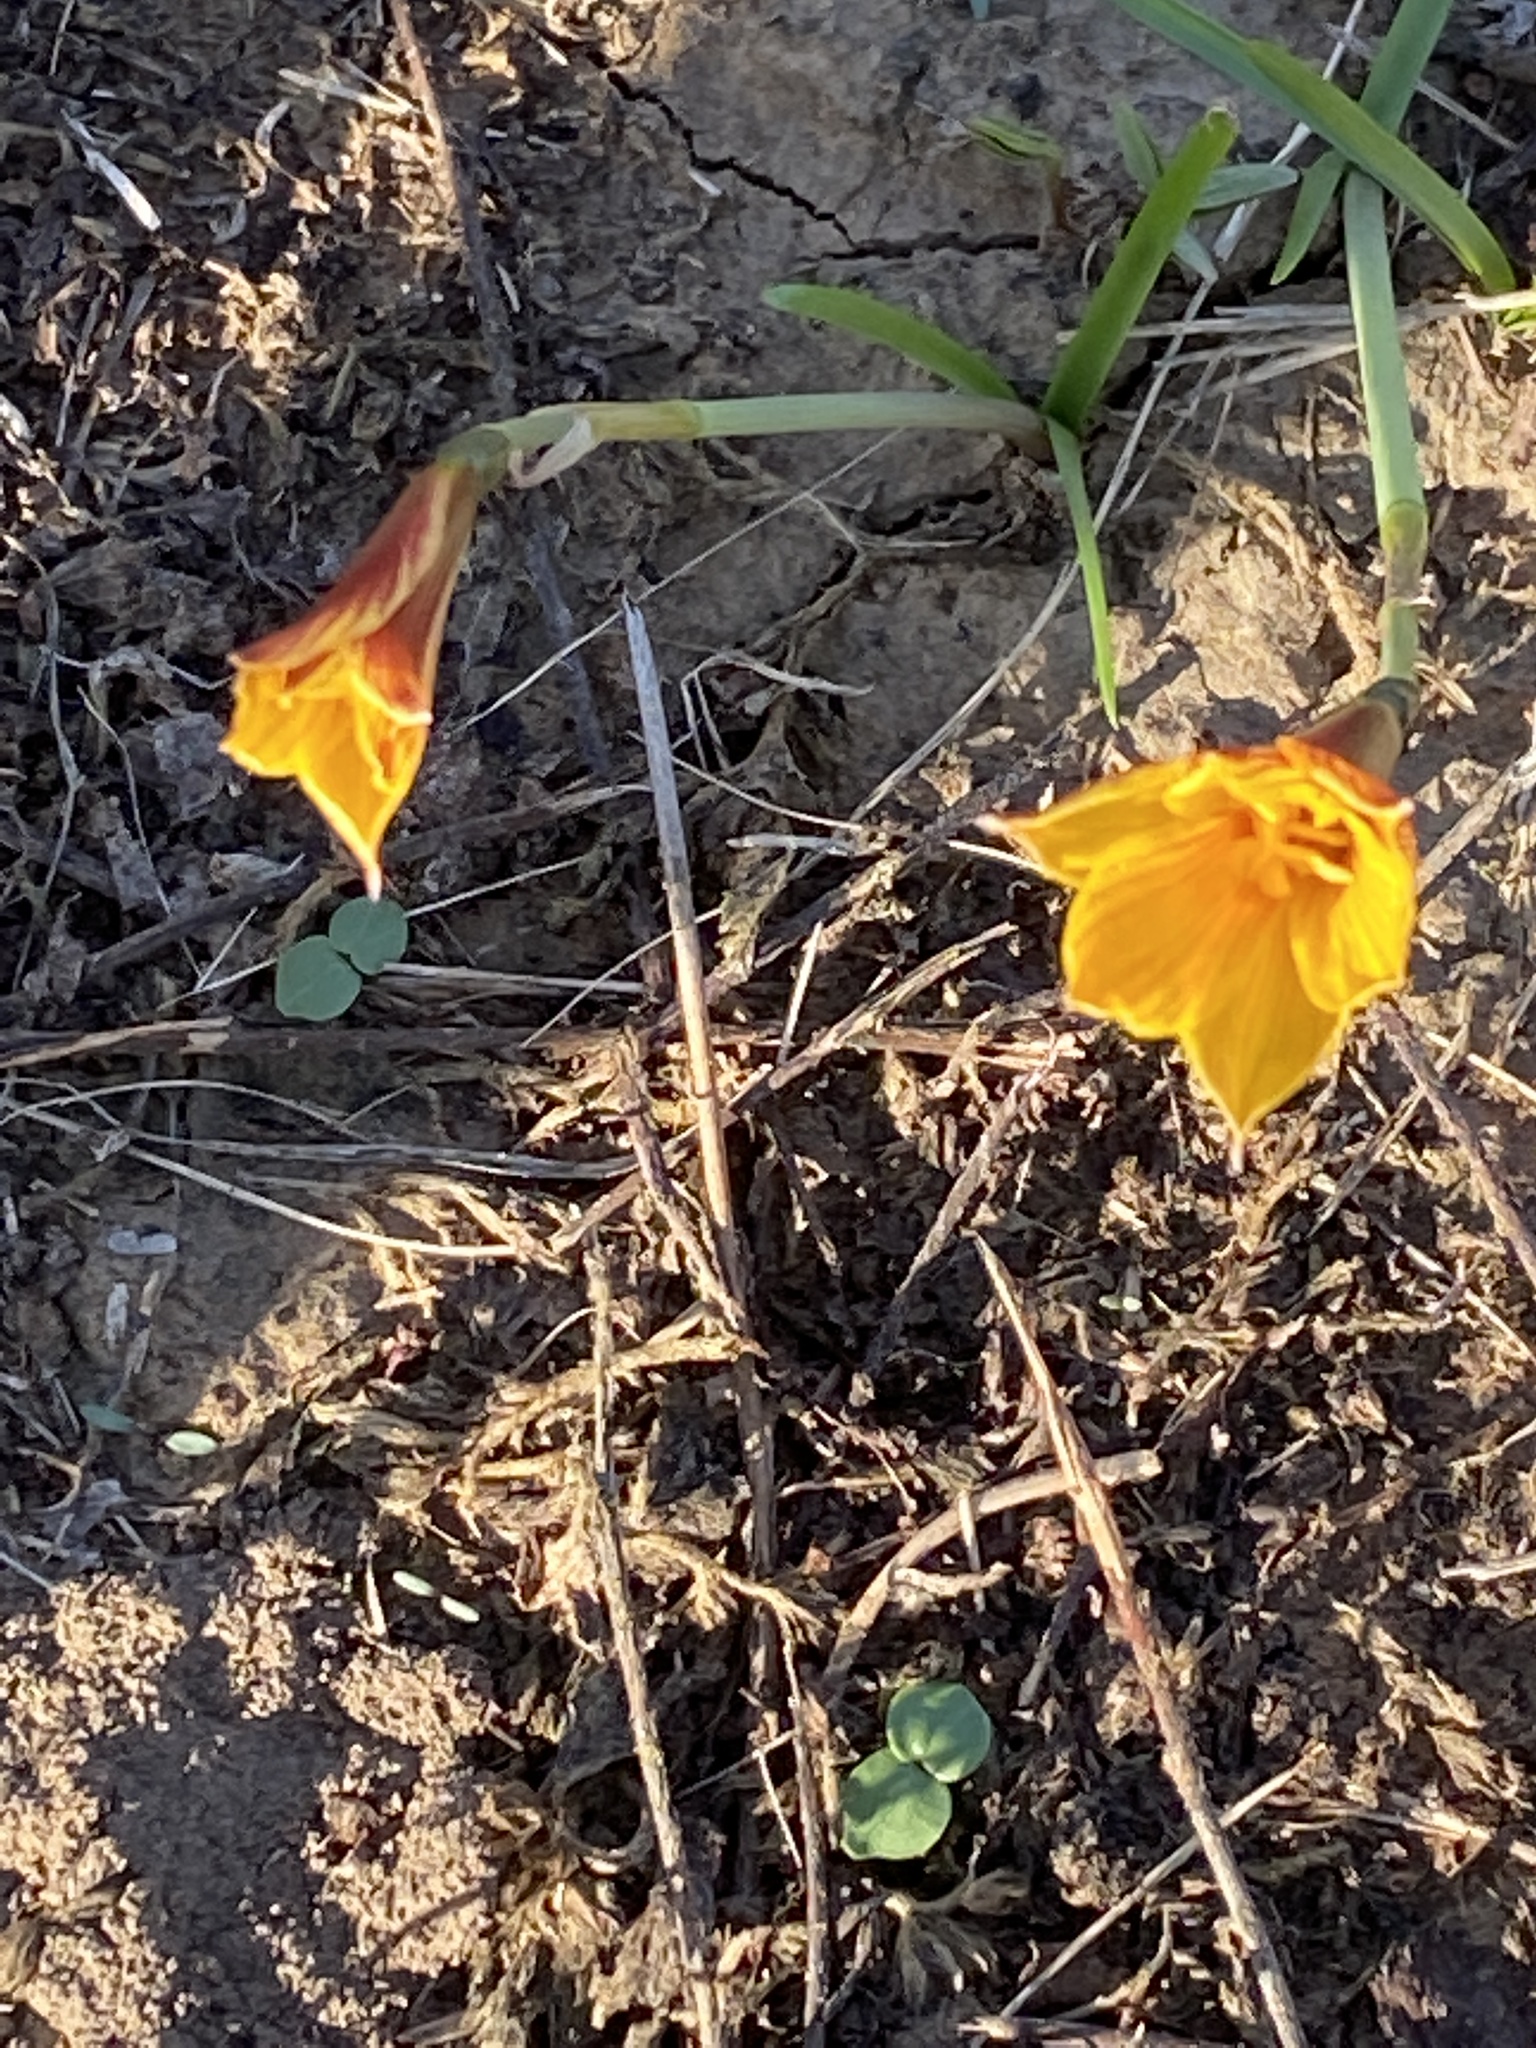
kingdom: Plantae
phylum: Tracheophyta
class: Liliopsida
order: Asparagales
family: Amaryllidaceae
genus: Zephyranthes
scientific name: Zephyranthes tubispatha
